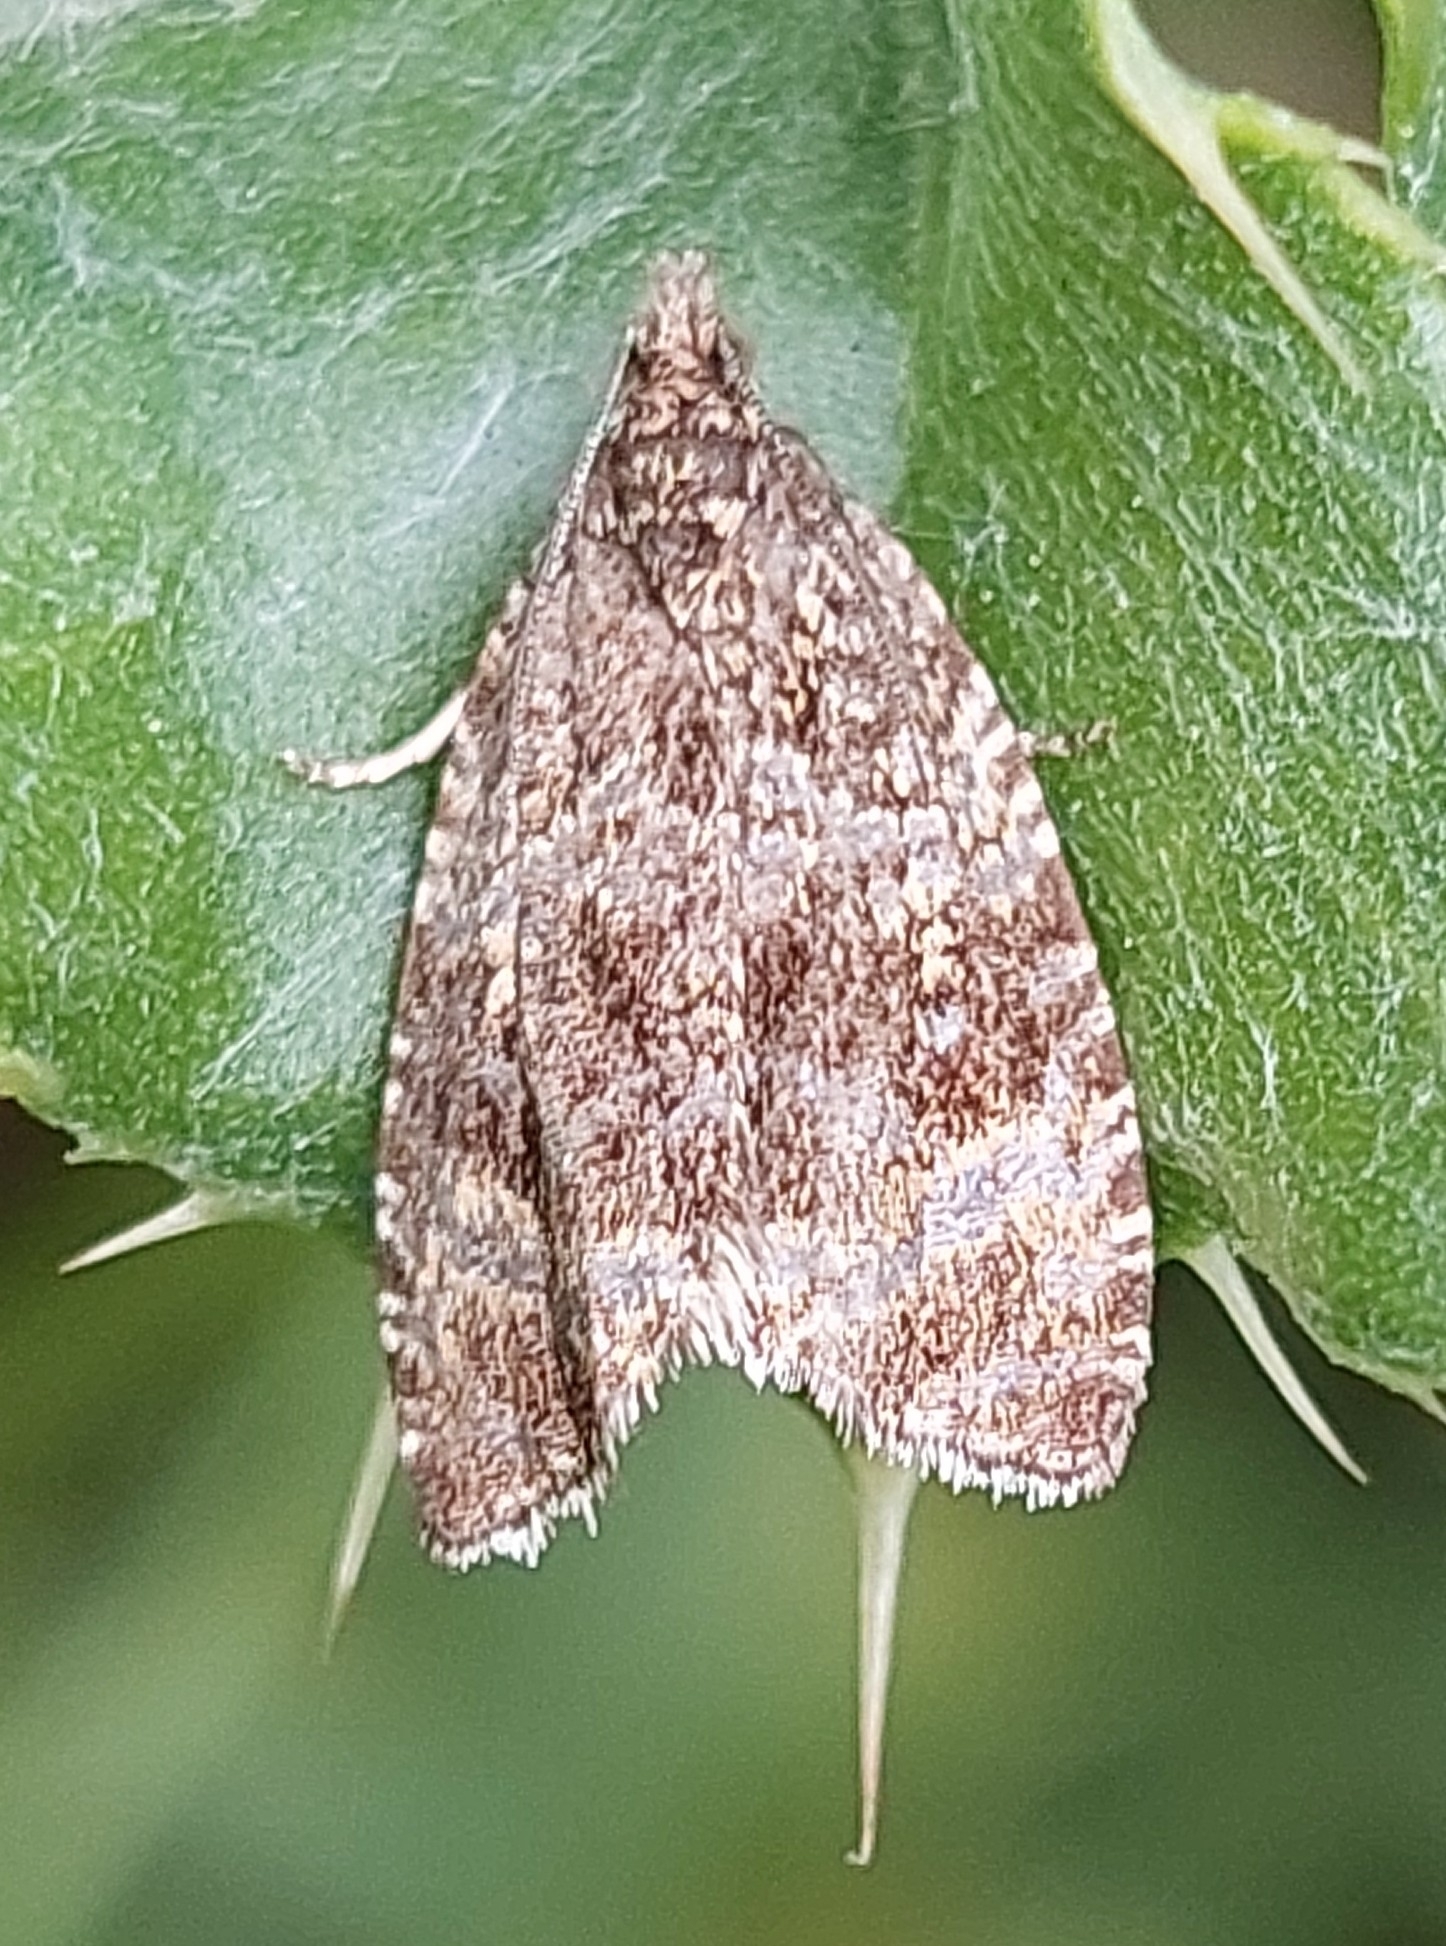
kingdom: Animalia
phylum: Arthropoda
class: Insecta
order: Lepidoptera
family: Tortricidae
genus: Syricoris
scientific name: Syricoris lacunana
